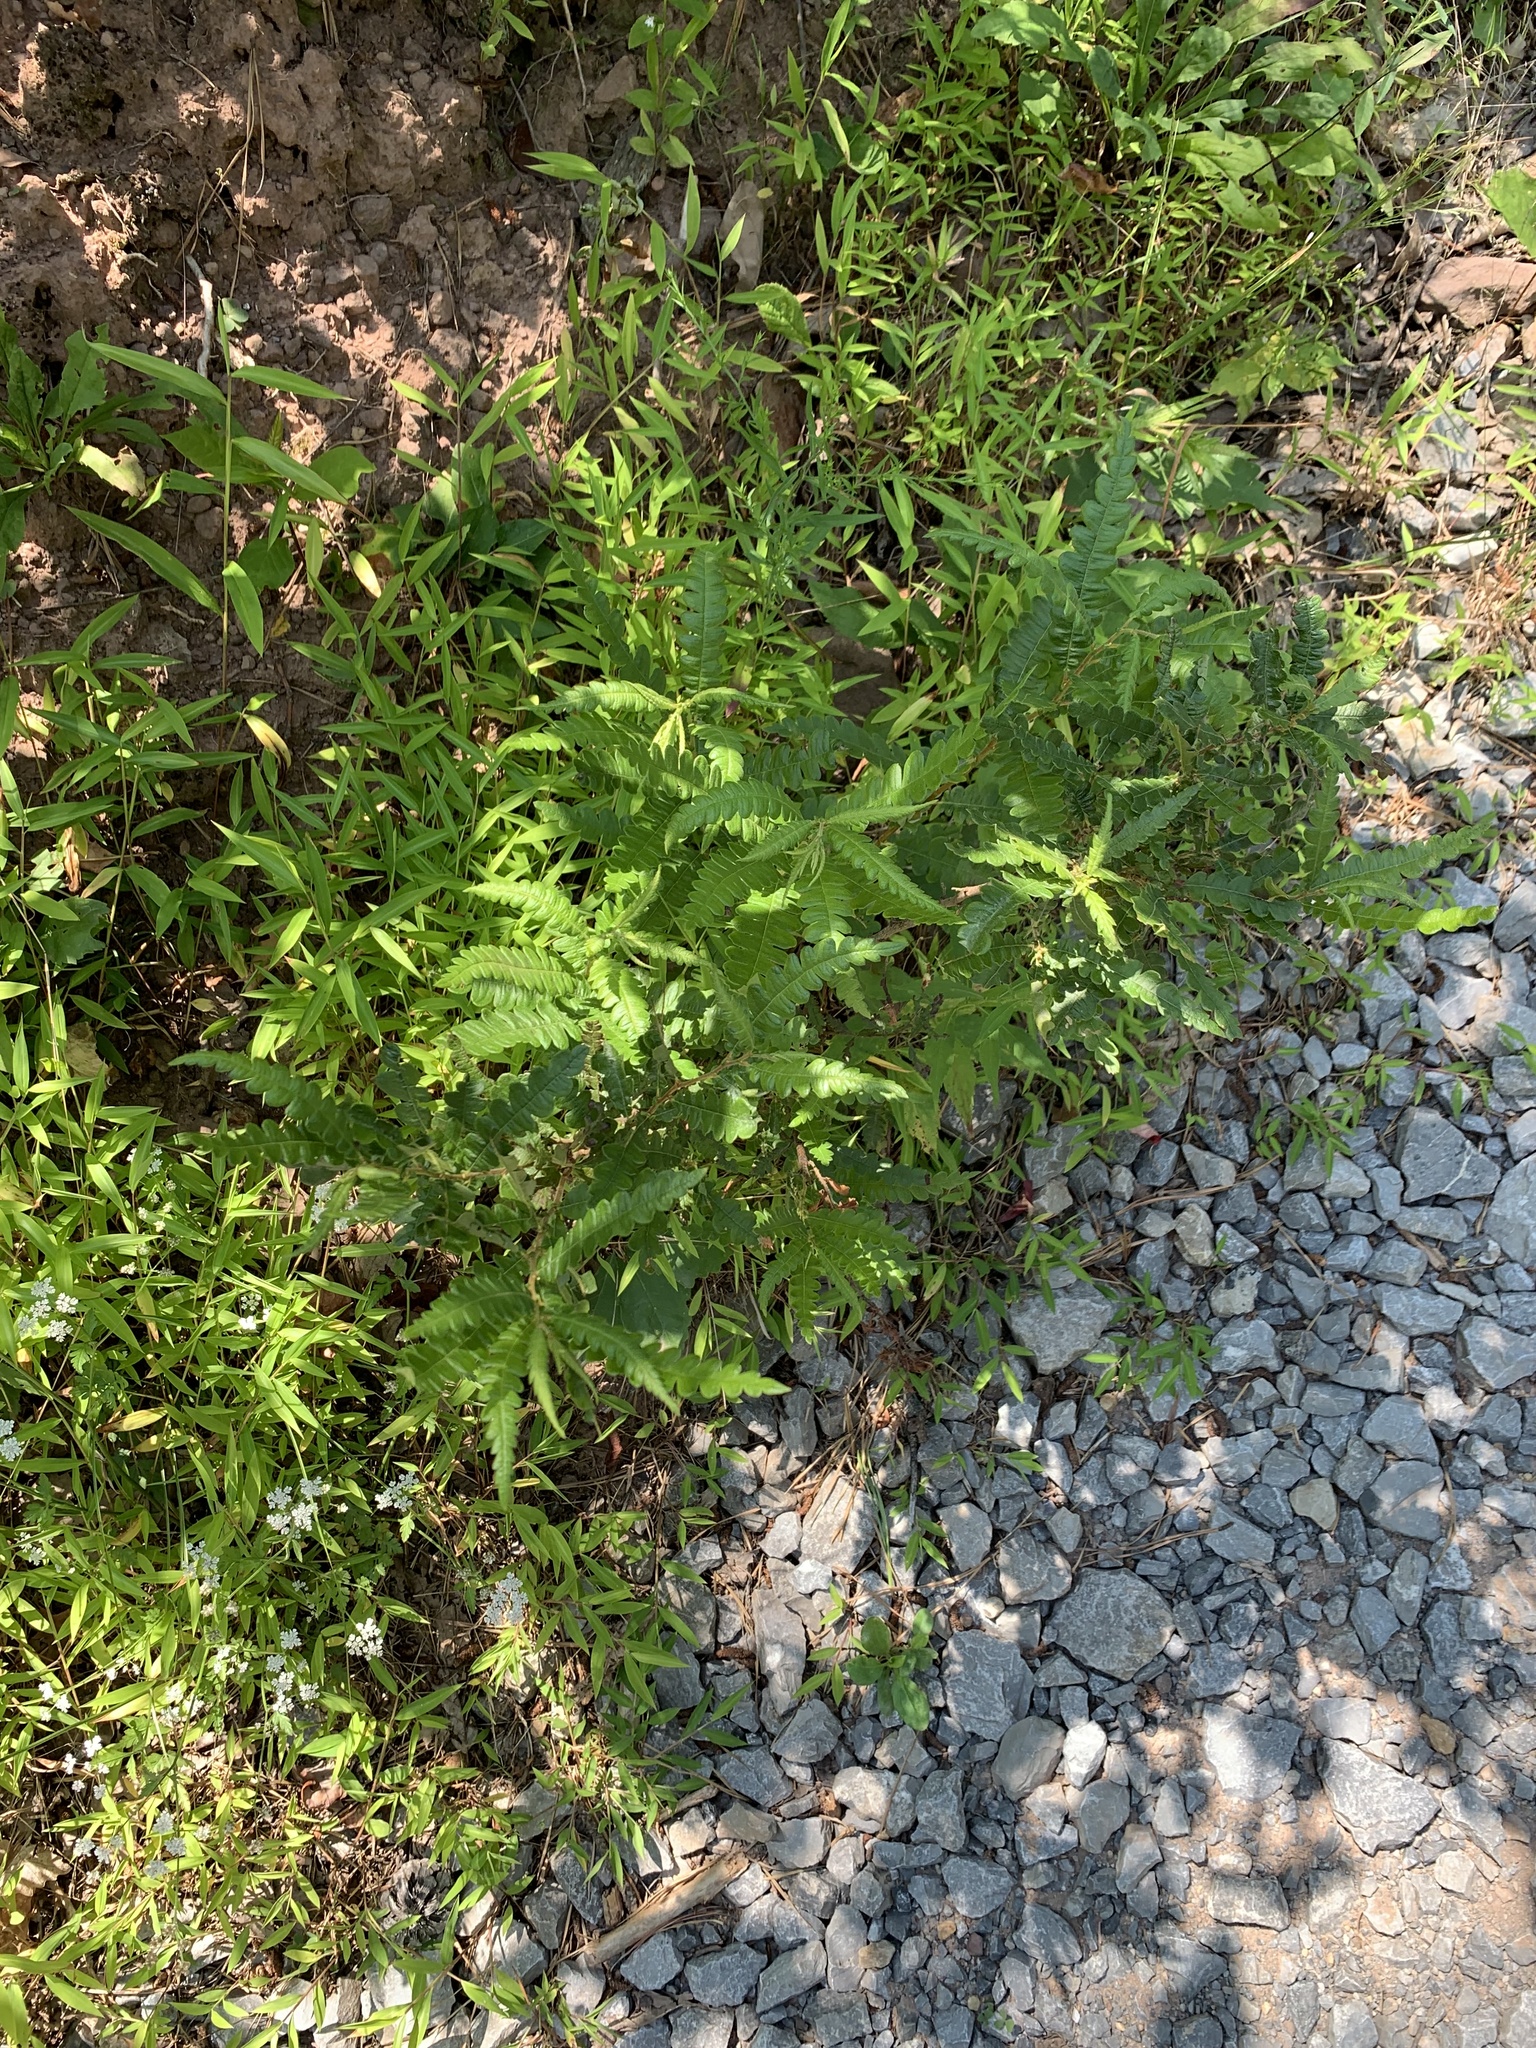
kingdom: Plantae
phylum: Tracheophyta
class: Magnoliopsida
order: Fagales
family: Myricaceae
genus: Comptonia
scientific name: Comptonia peregrina
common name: Sweet-fern
